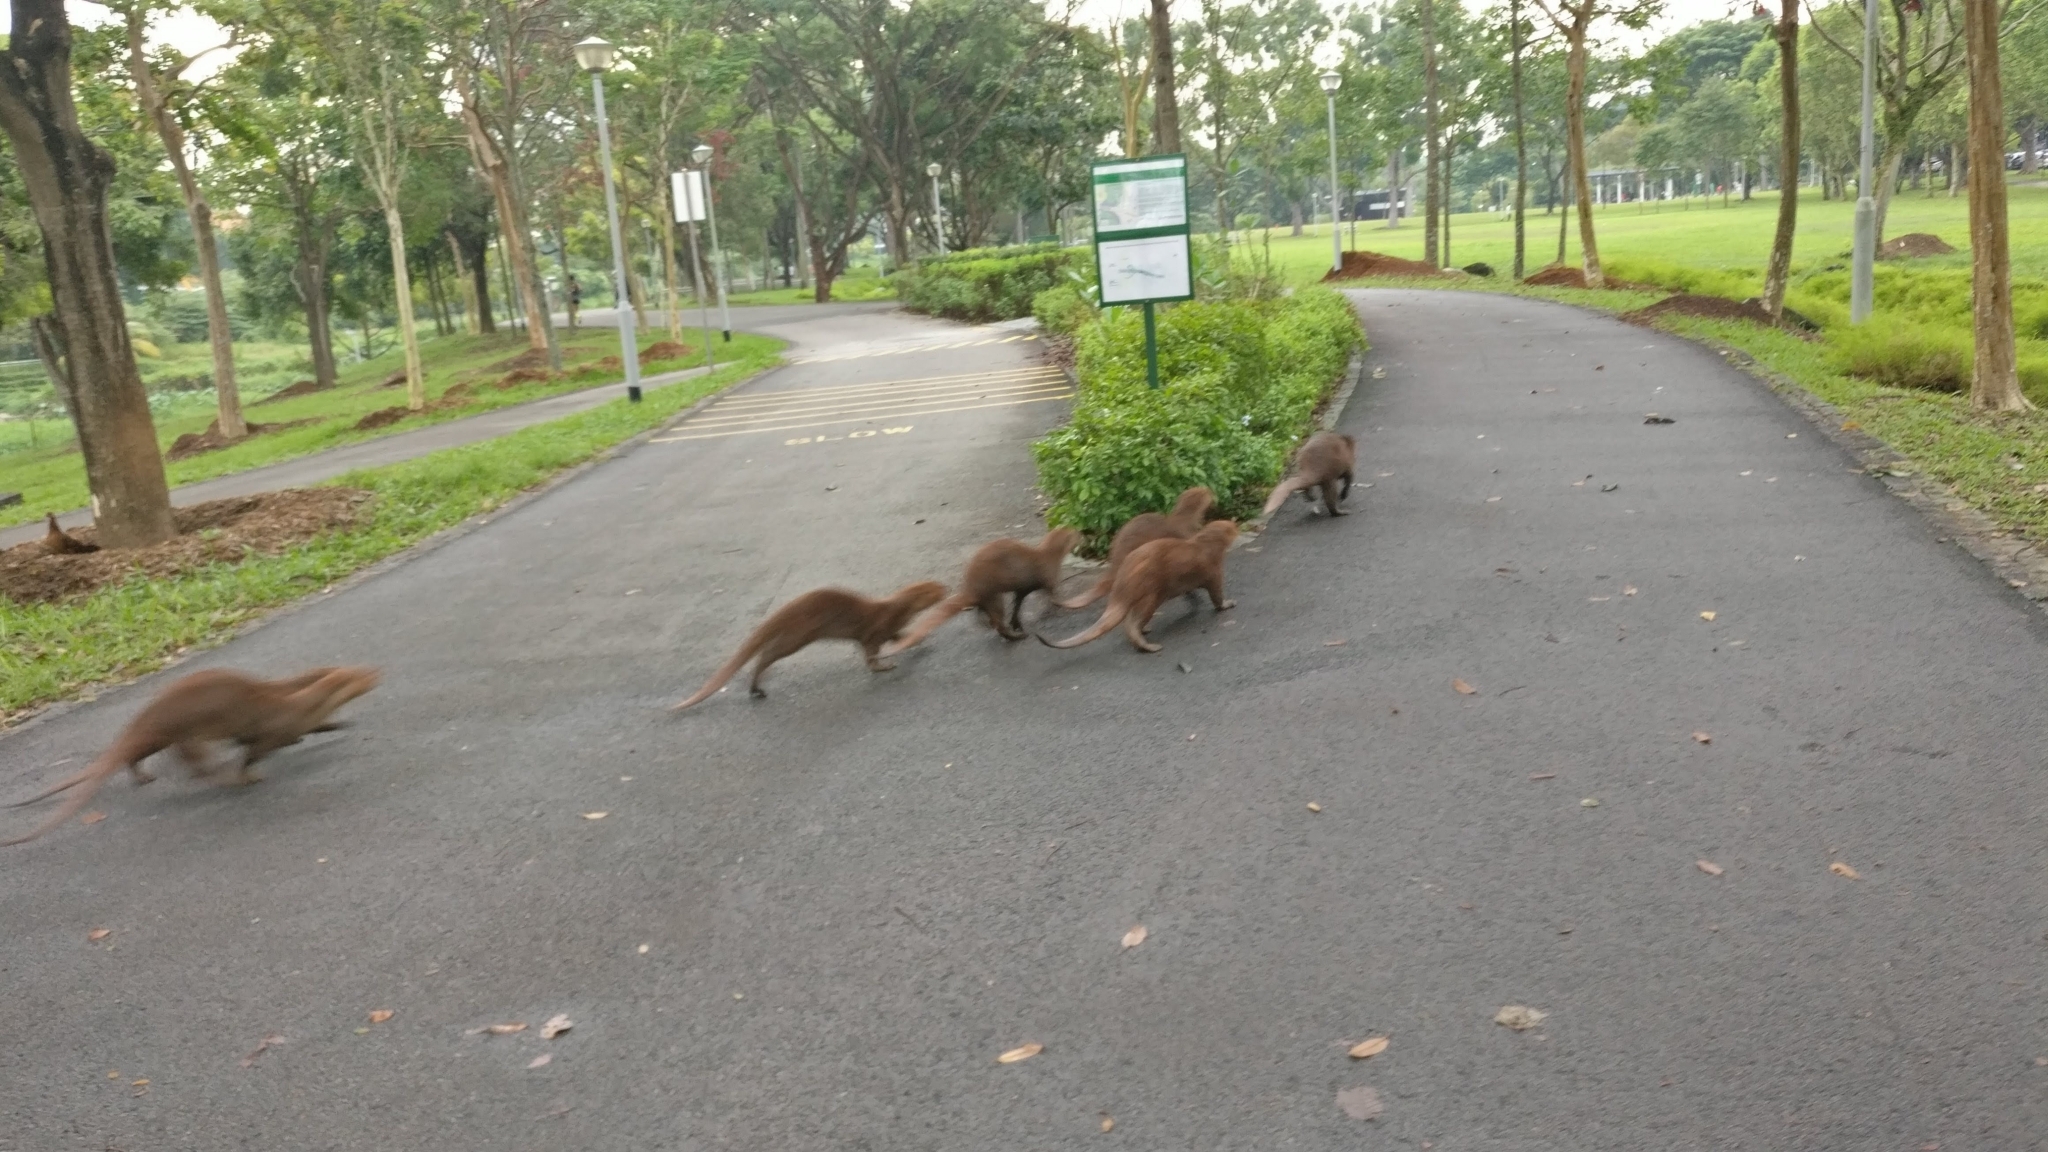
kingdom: Animalia
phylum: Chordata
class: Mammalia
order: Carnivora
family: Mustelidae
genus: Lutrogale
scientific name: Lutrogale perspicillata
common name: Smooth-coated otter
